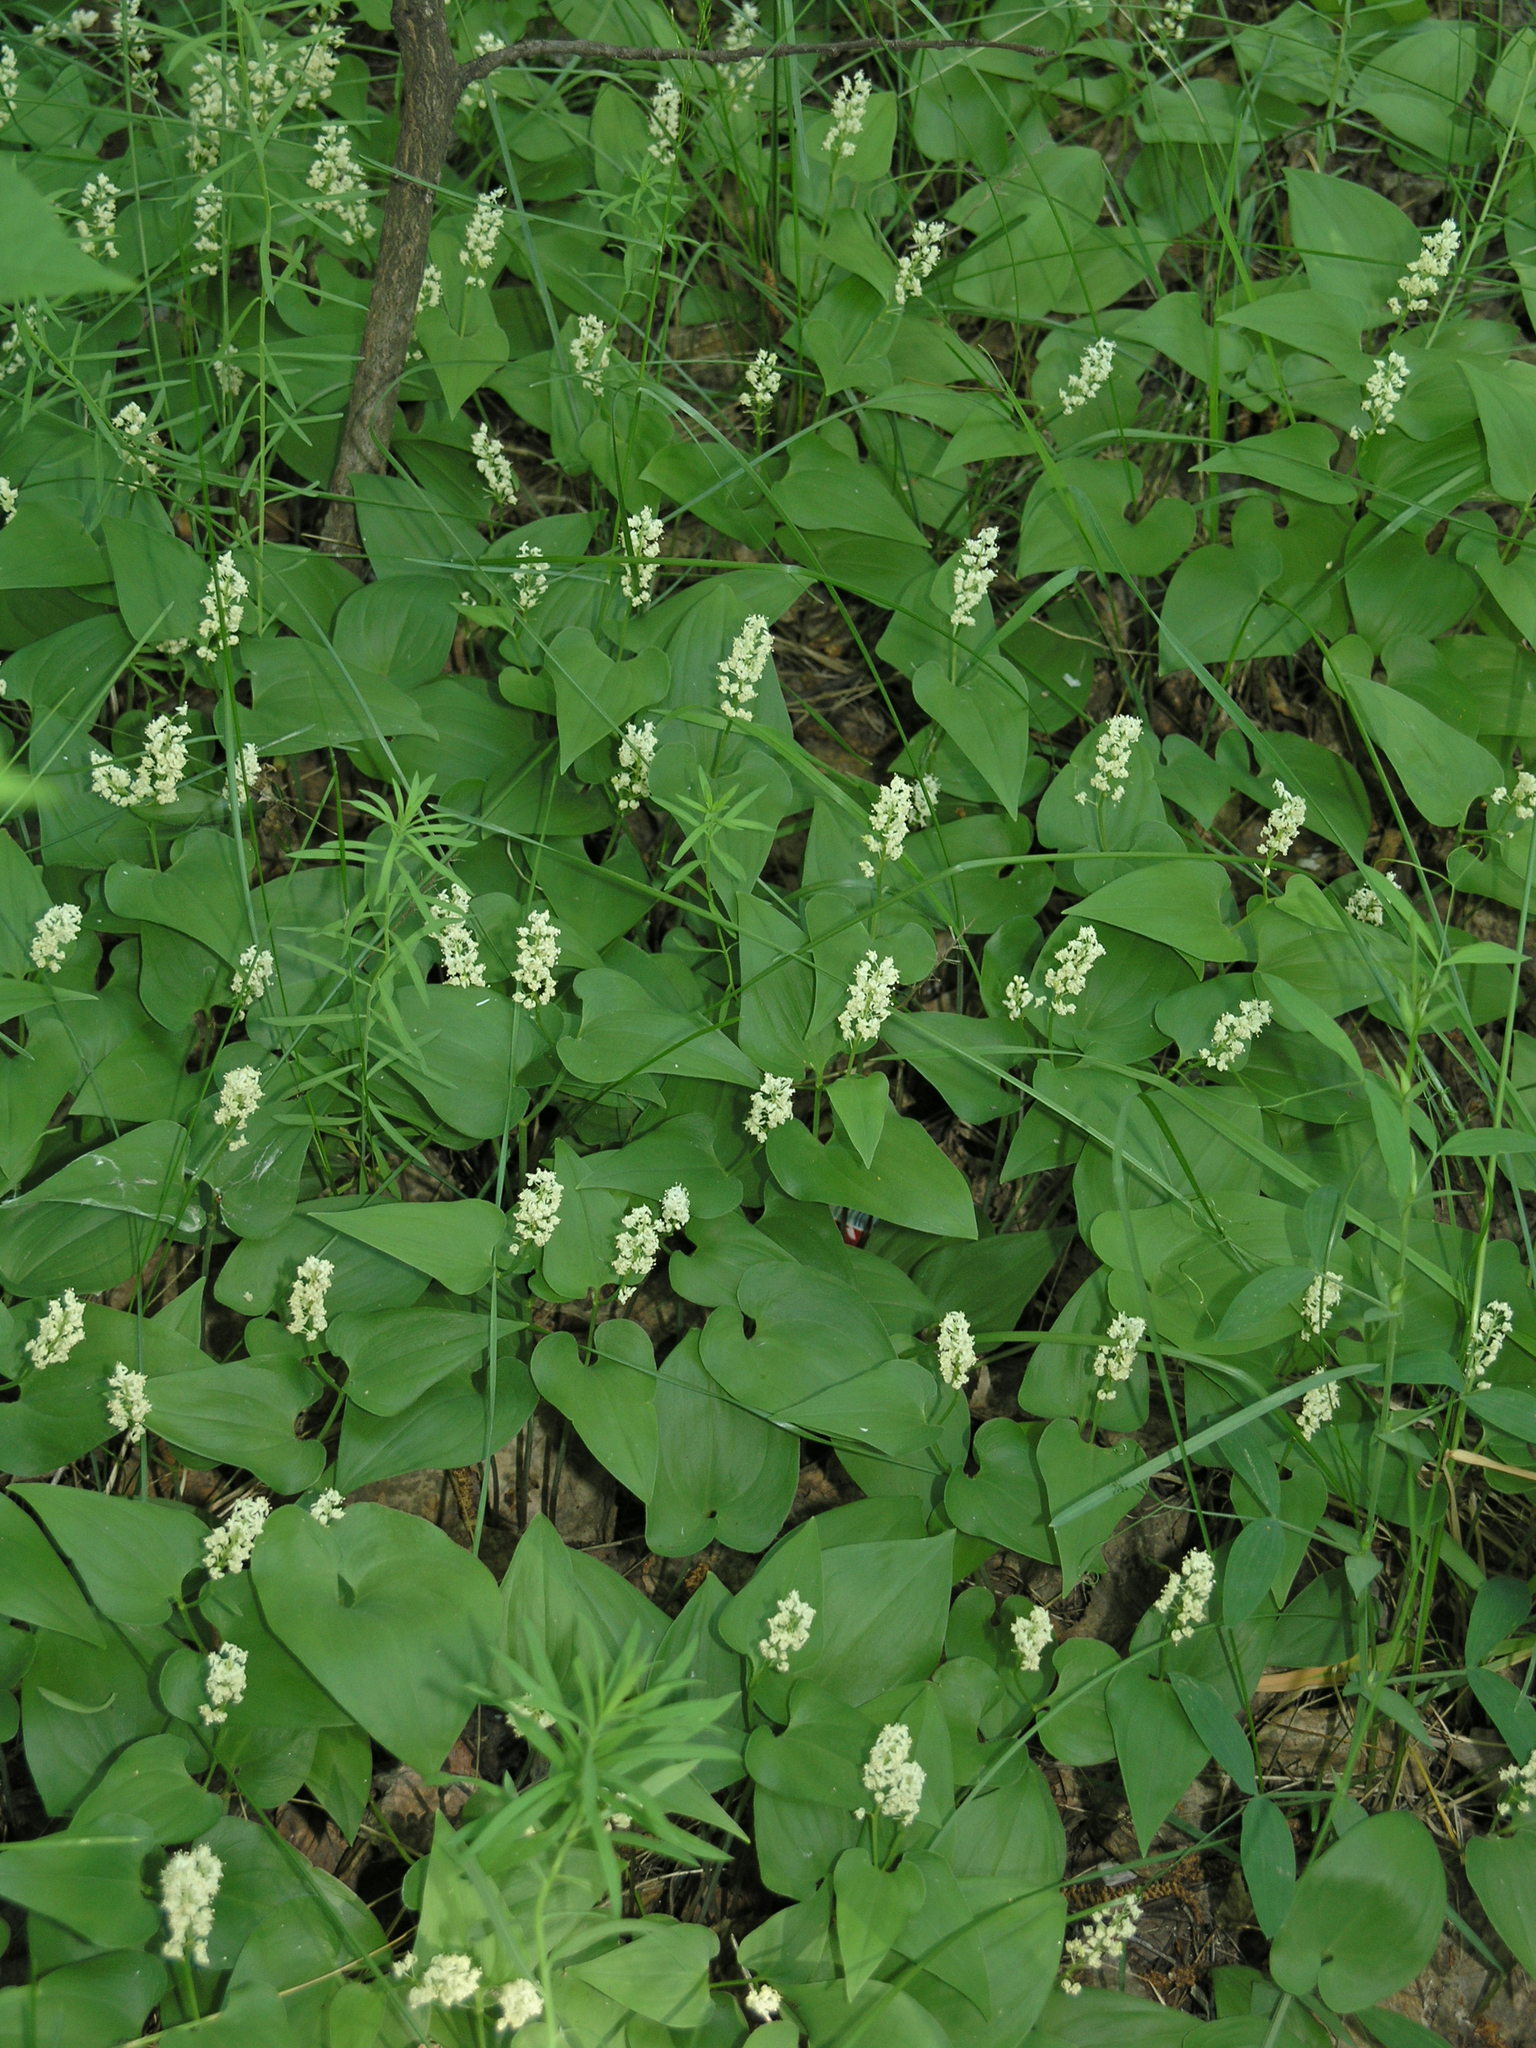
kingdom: Plantae
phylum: Tracheophyta
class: Liliopsida
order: Asparagales
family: Asparagaceae
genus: Maianthemum
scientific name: Maianthemum bifolium
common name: May lily
